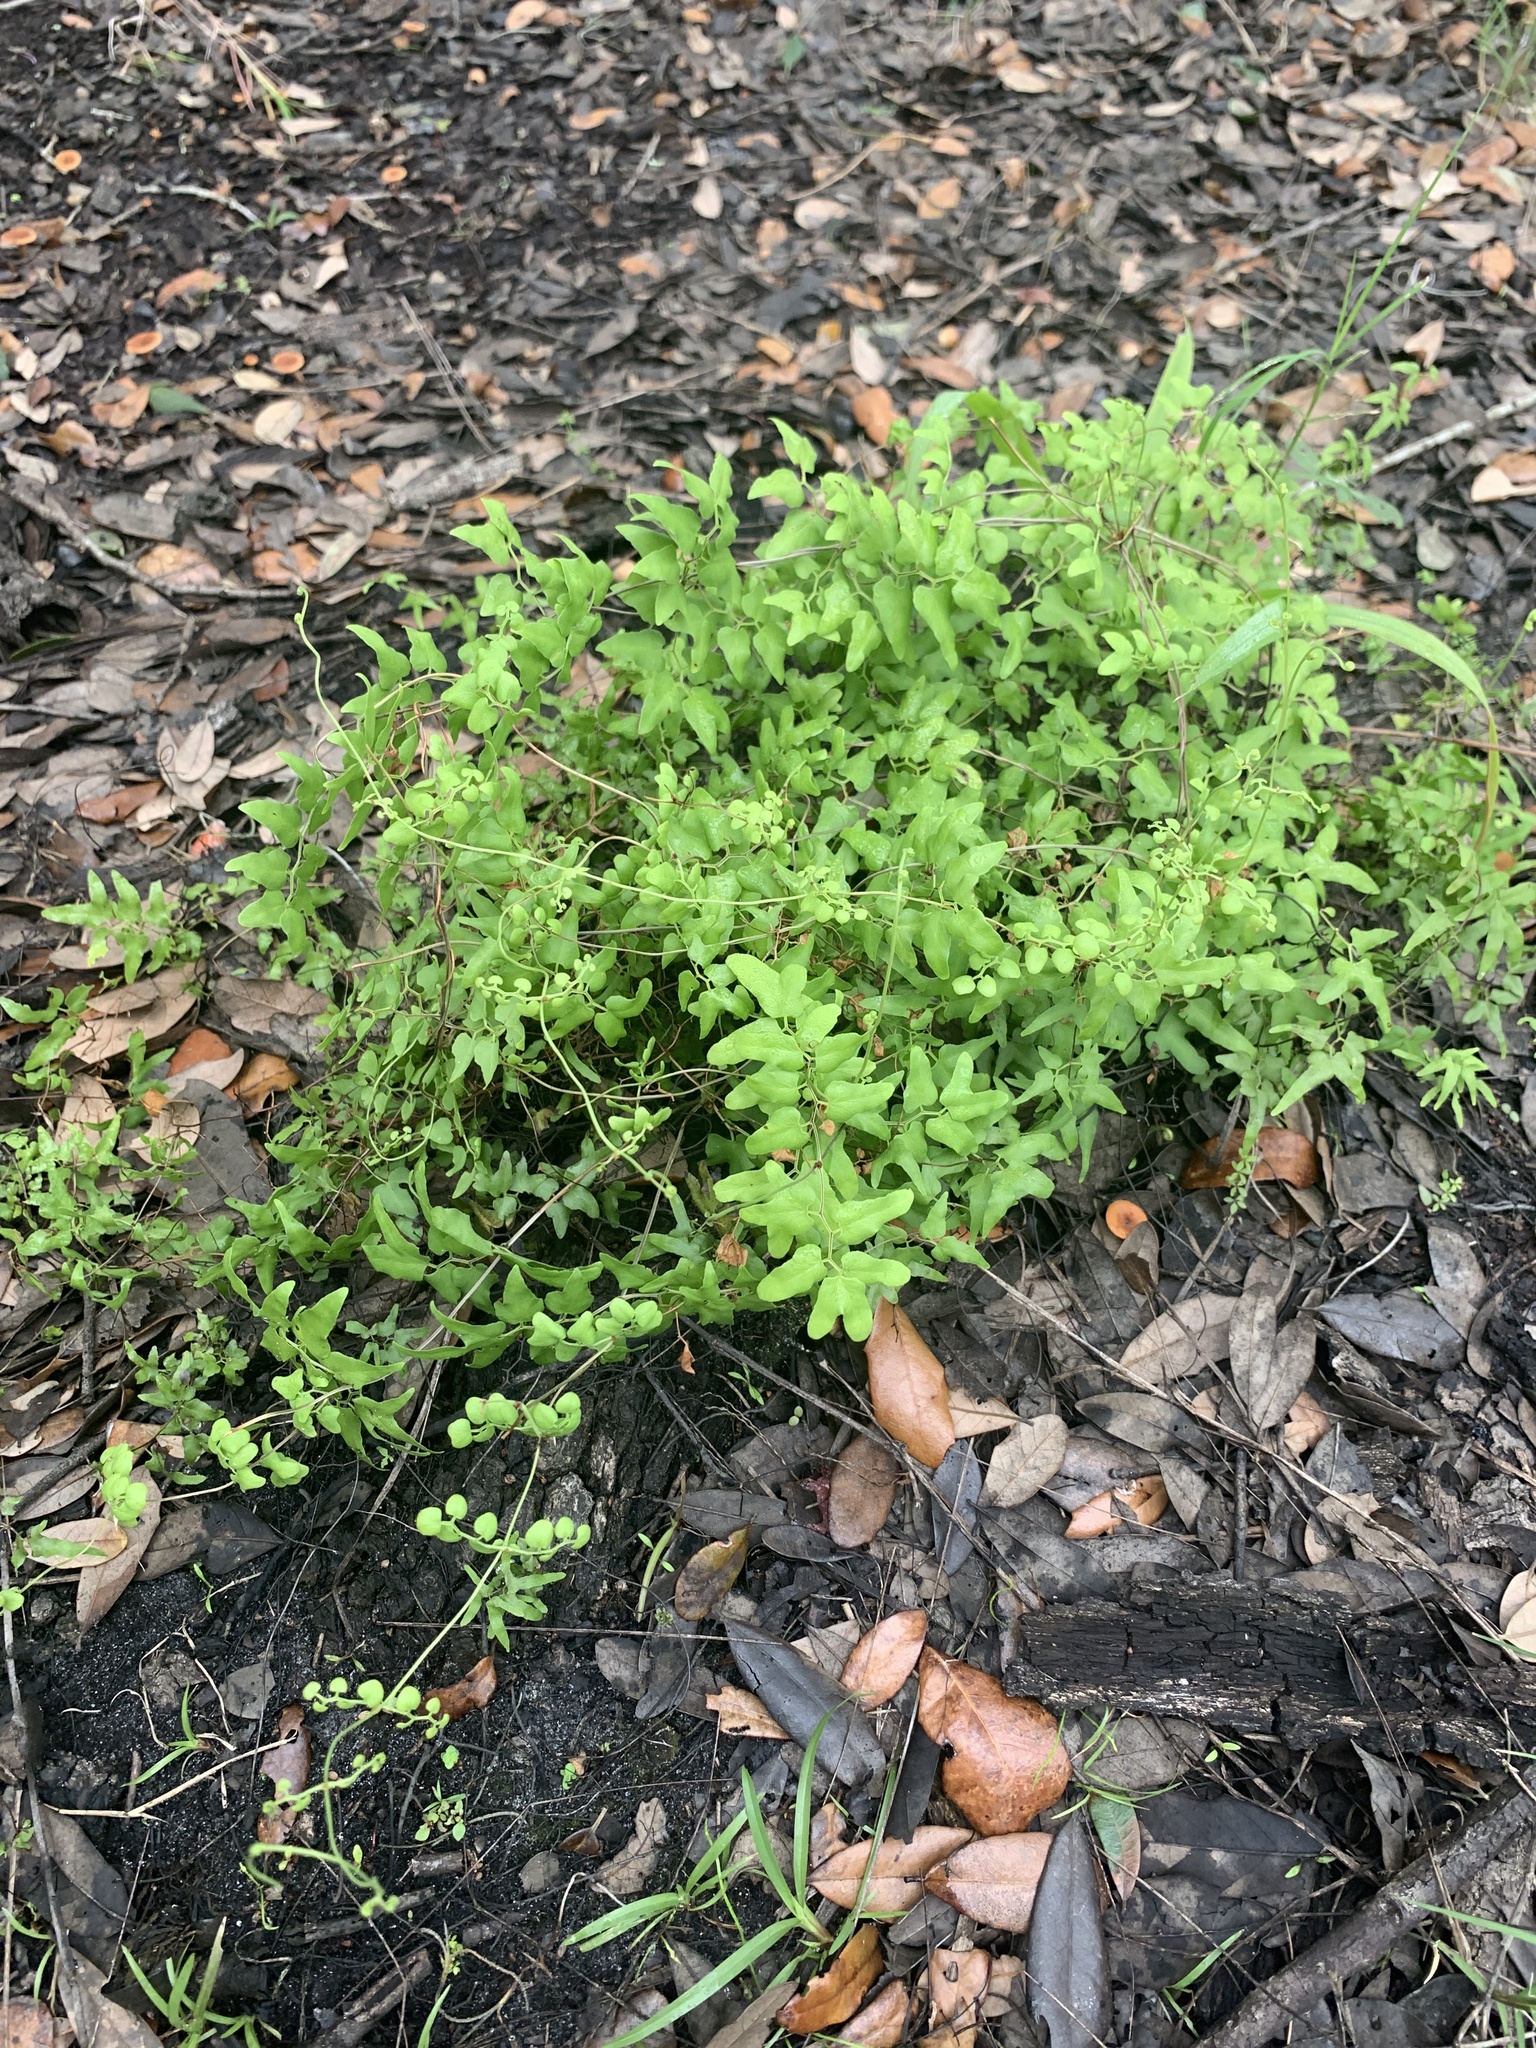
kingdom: Plantae
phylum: Tracheophyta
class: Polypodiopsida
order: Schizaeales
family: Lygodiaceae
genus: Lygodium
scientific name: Lygodium microphyllum
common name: Small-leaf climbing fern
